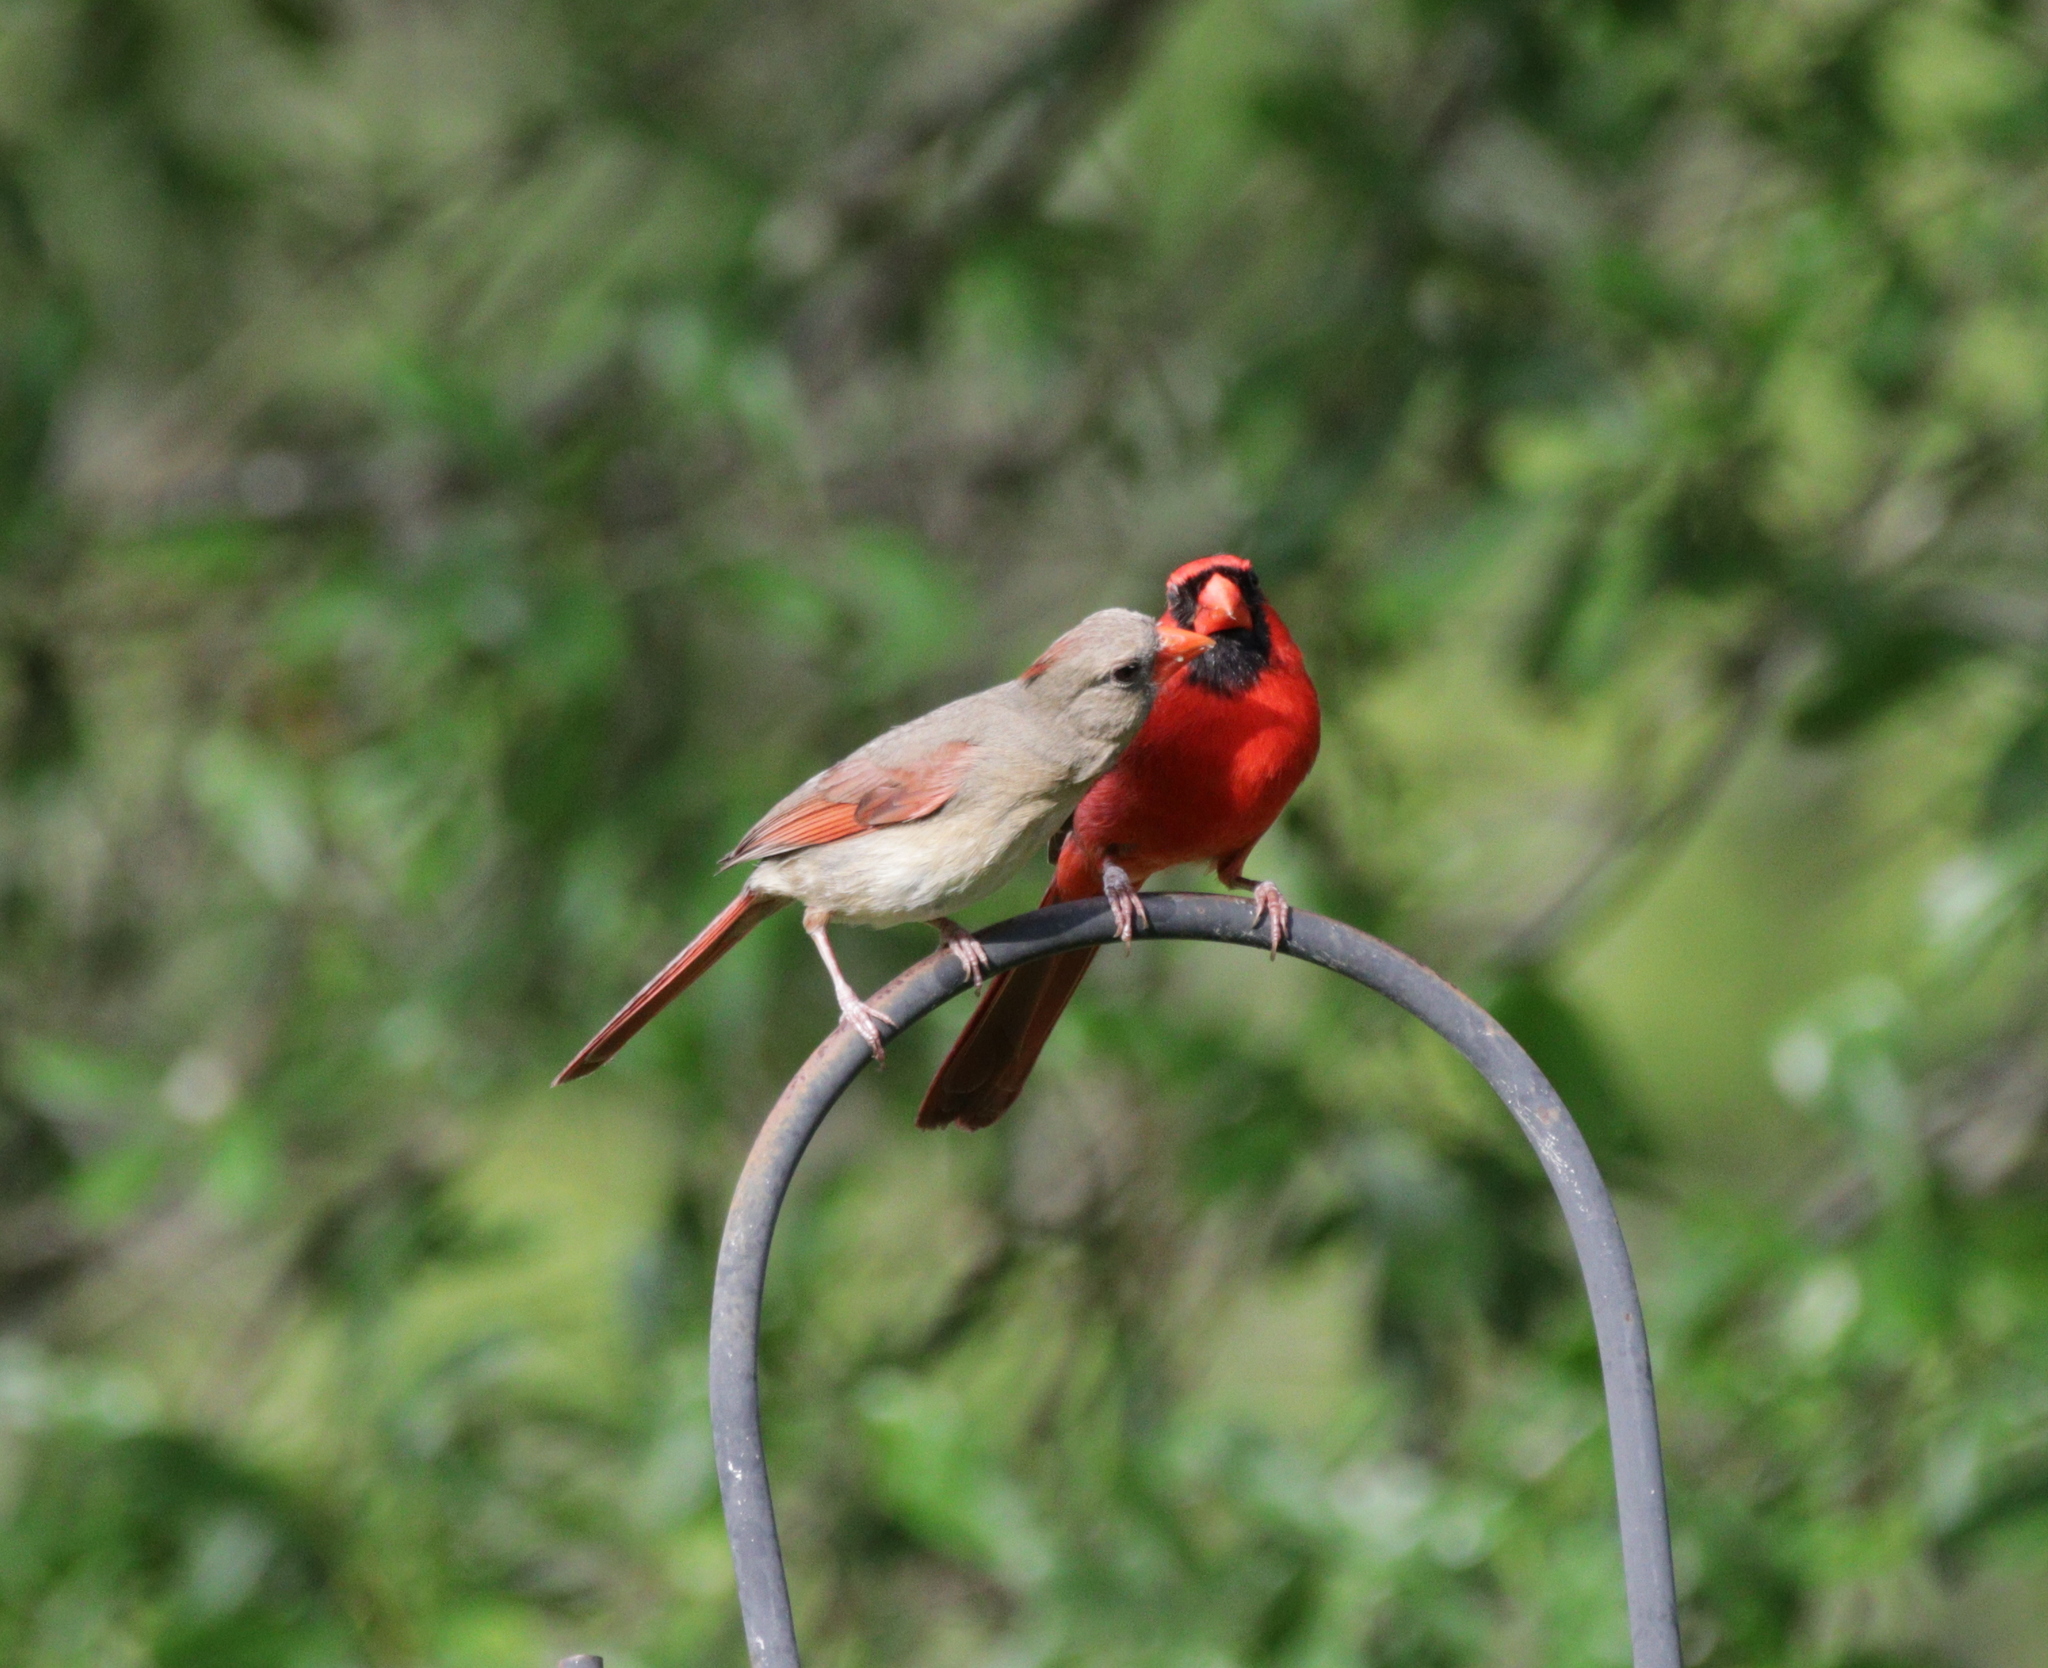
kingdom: Animalia
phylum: Chordata
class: Aves
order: Passeriformes
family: Cardinalidae
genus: Cardinalis
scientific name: Cardinalis cardinalis
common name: Northern cardinal
